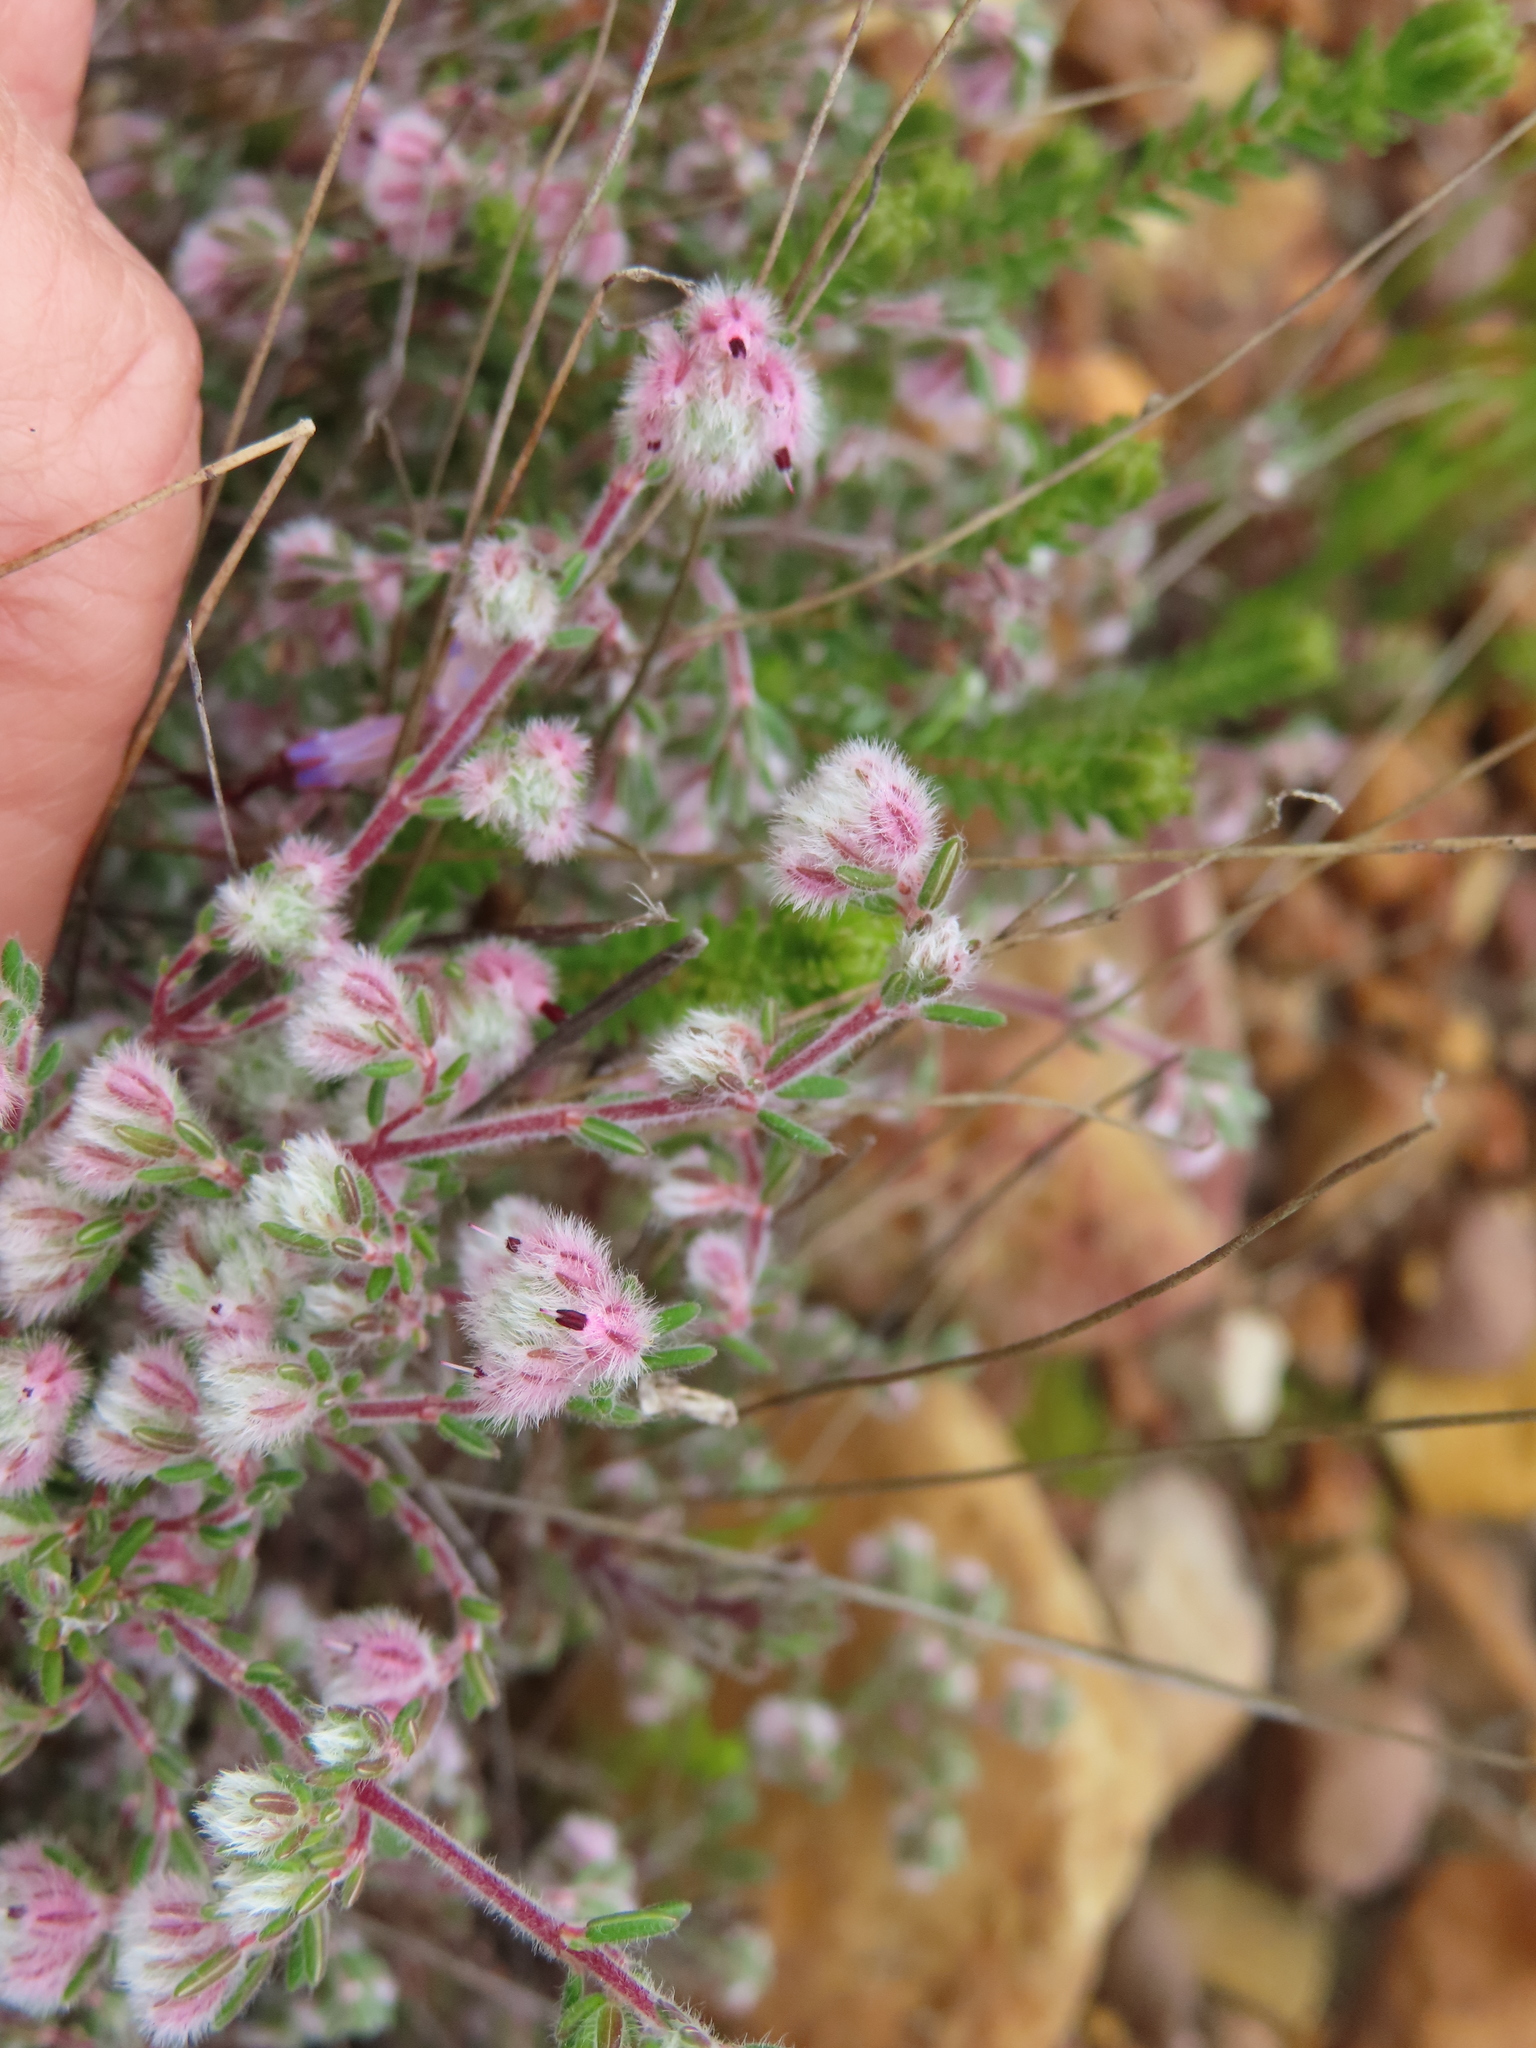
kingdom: Plantae
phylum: Tracheophyta
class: Magnoliopsida
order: Ericales
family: Ericaceae
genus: Erica
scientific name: Erica pilosiflora
